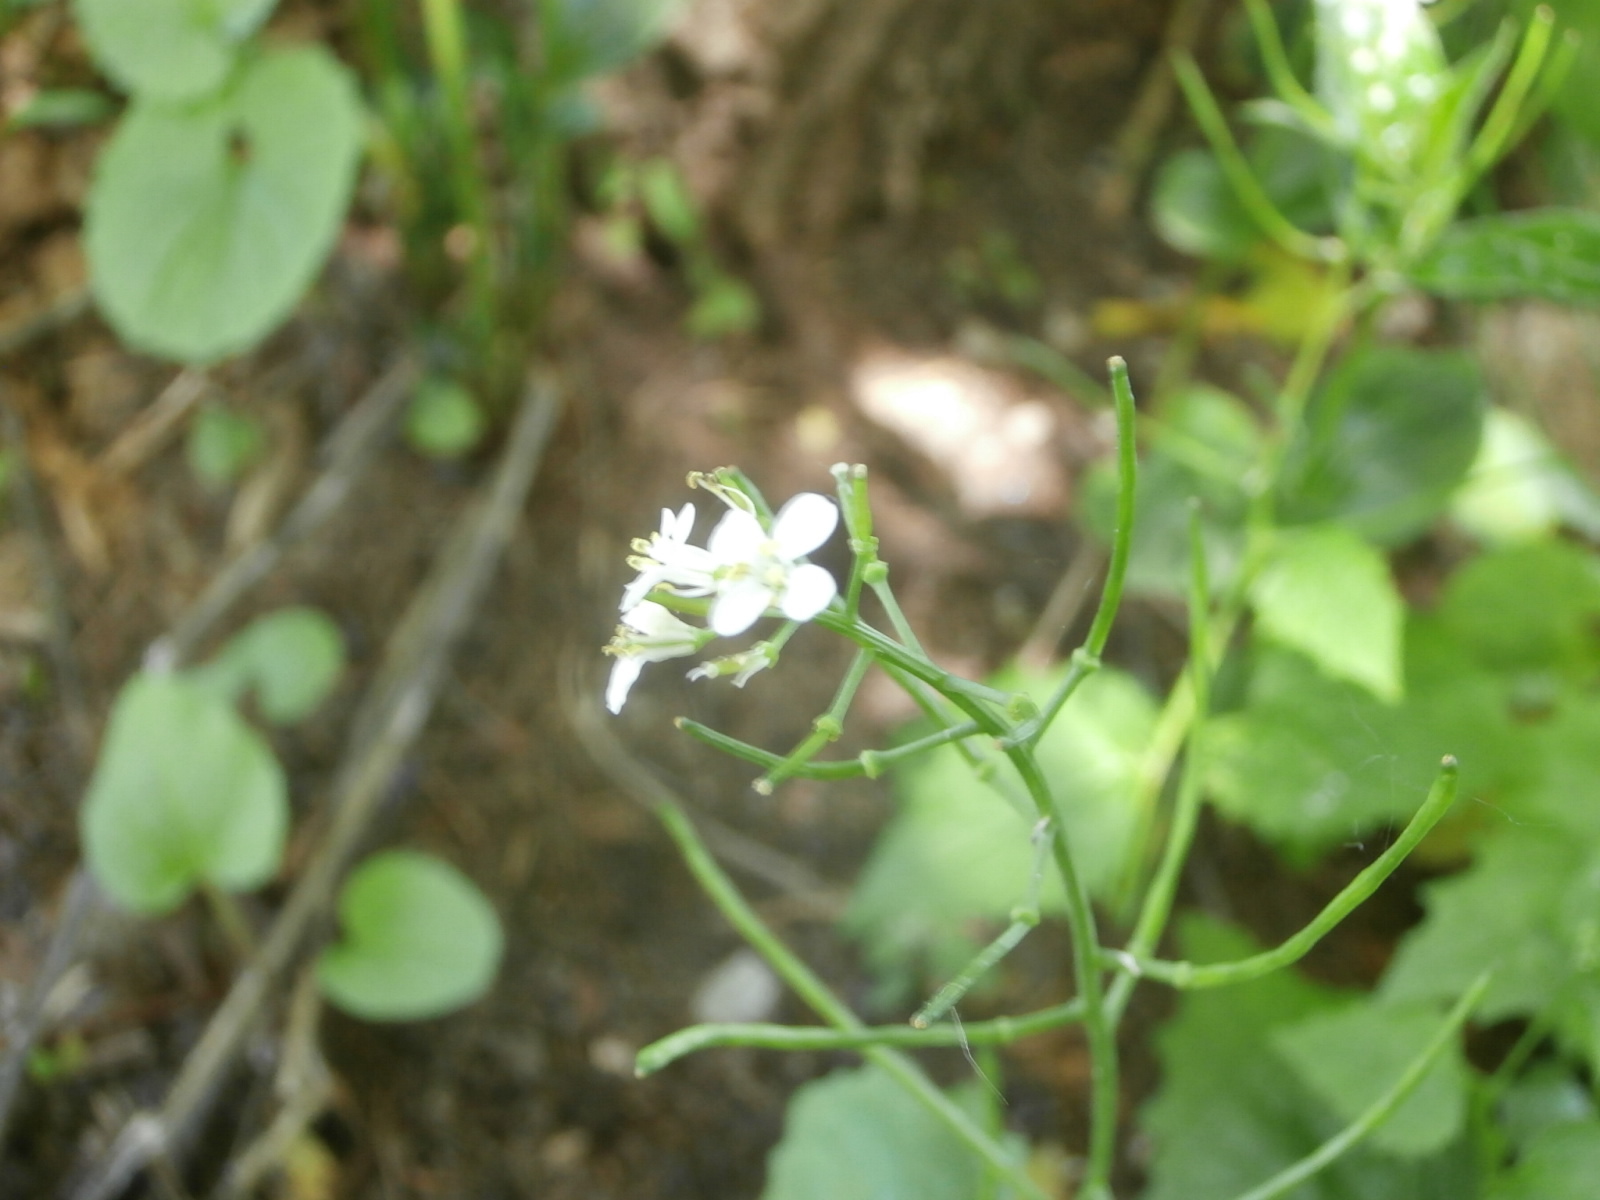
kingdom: Plantae
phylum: Tracheophyta
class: Magnoliopsida
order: Brassicales
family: Brassicaceae
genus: Alliaria
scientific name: Alliaria petiolata
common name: Garlic mustard
